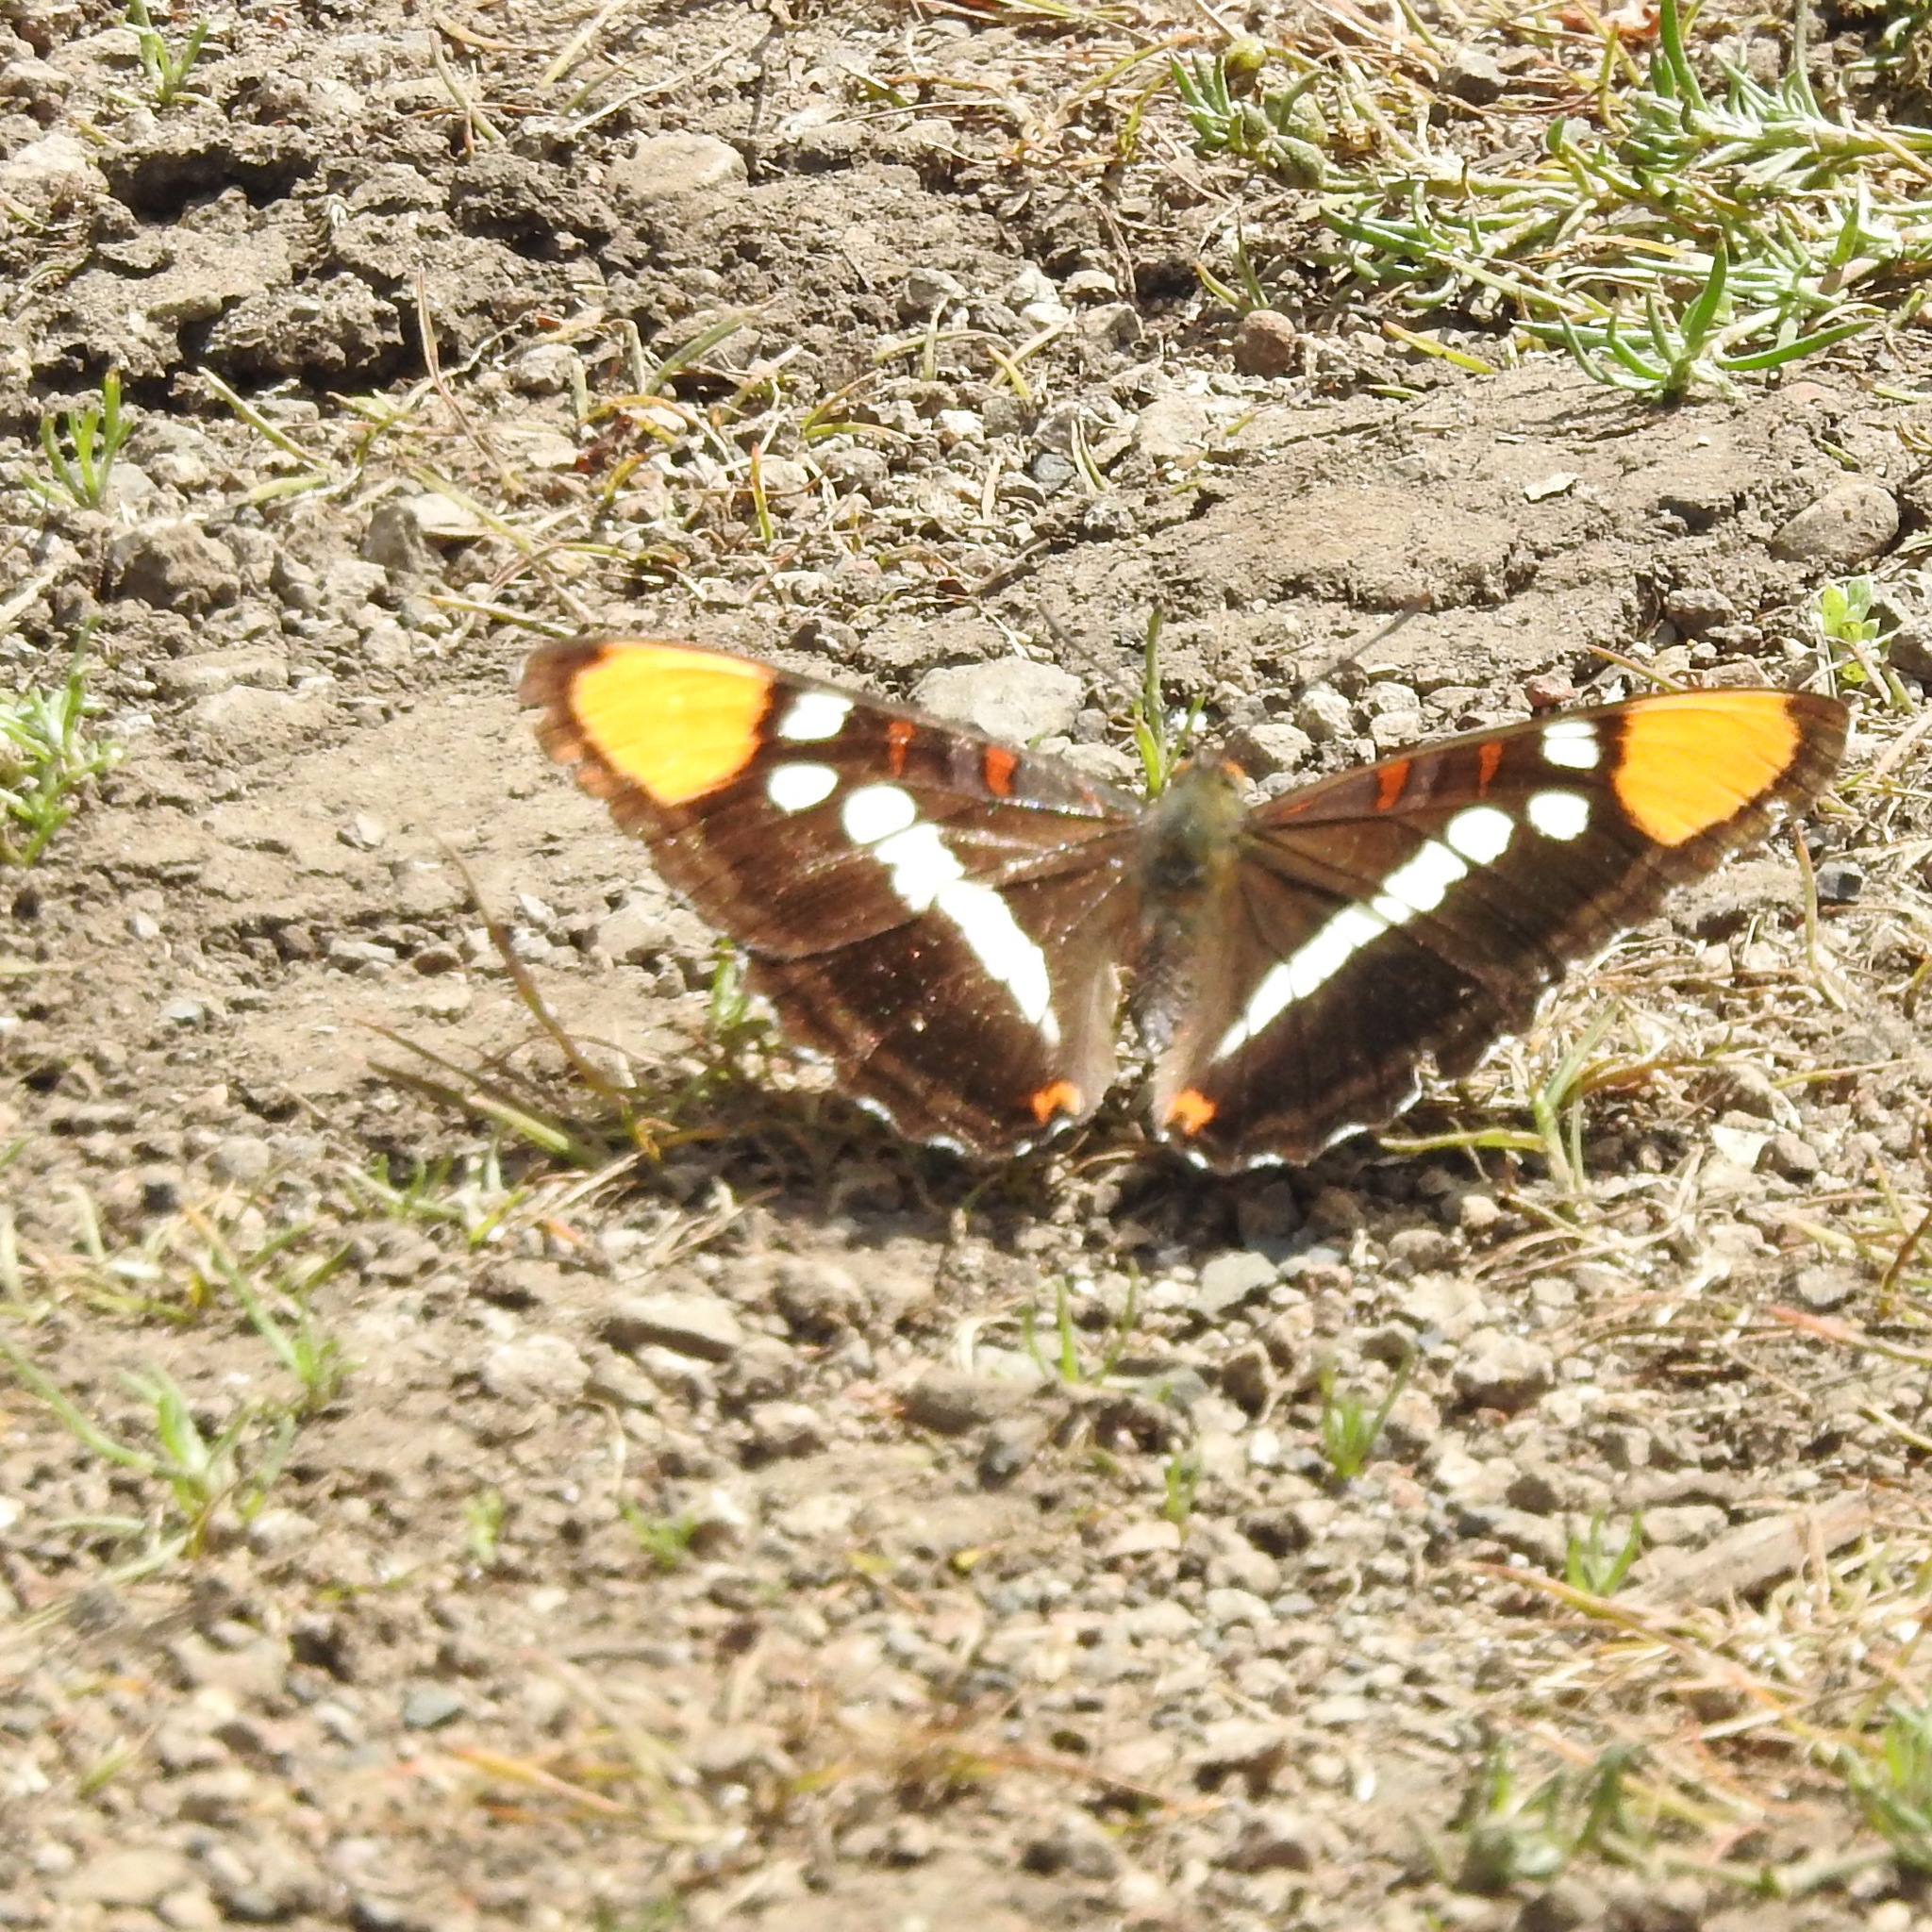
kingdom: Animalia
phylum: Arthropoda
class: Insecta
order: Lepidoptera
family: Nymphalidae
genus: Limenitis
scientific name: Limenitis bredowii
